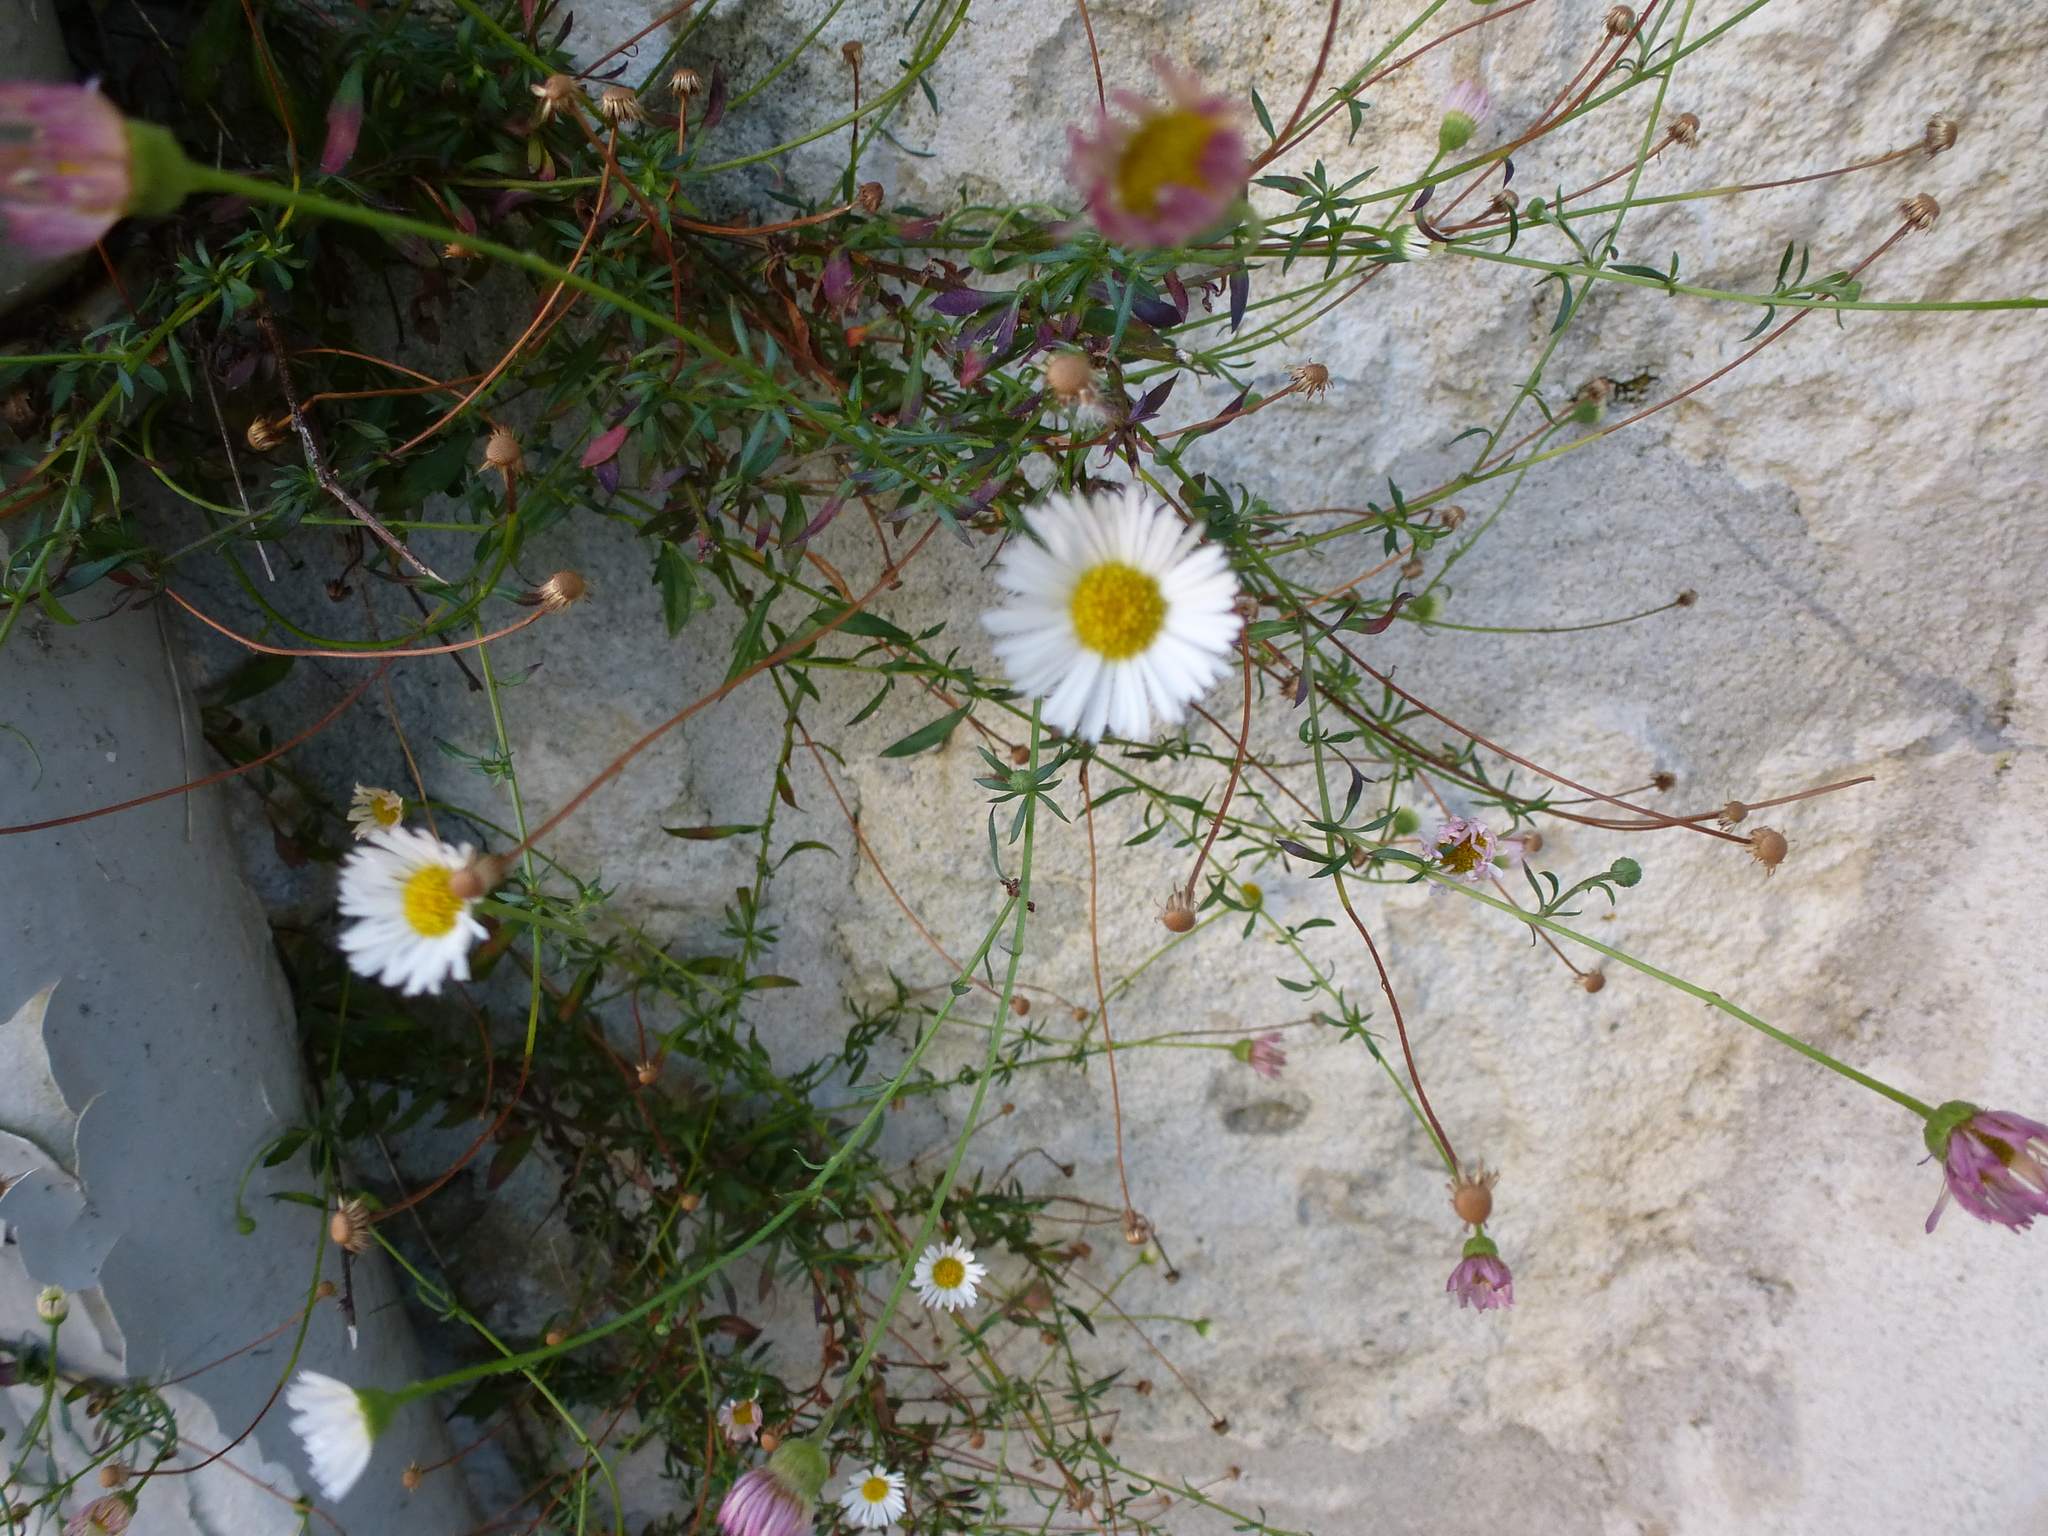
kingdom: Plantae
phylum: Tracheophyta
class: Magnoliopsida
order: Asterales
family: Asteraceae
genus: Erigeron
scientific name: Erigeron karvinskianus
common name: Mexican fleabane
